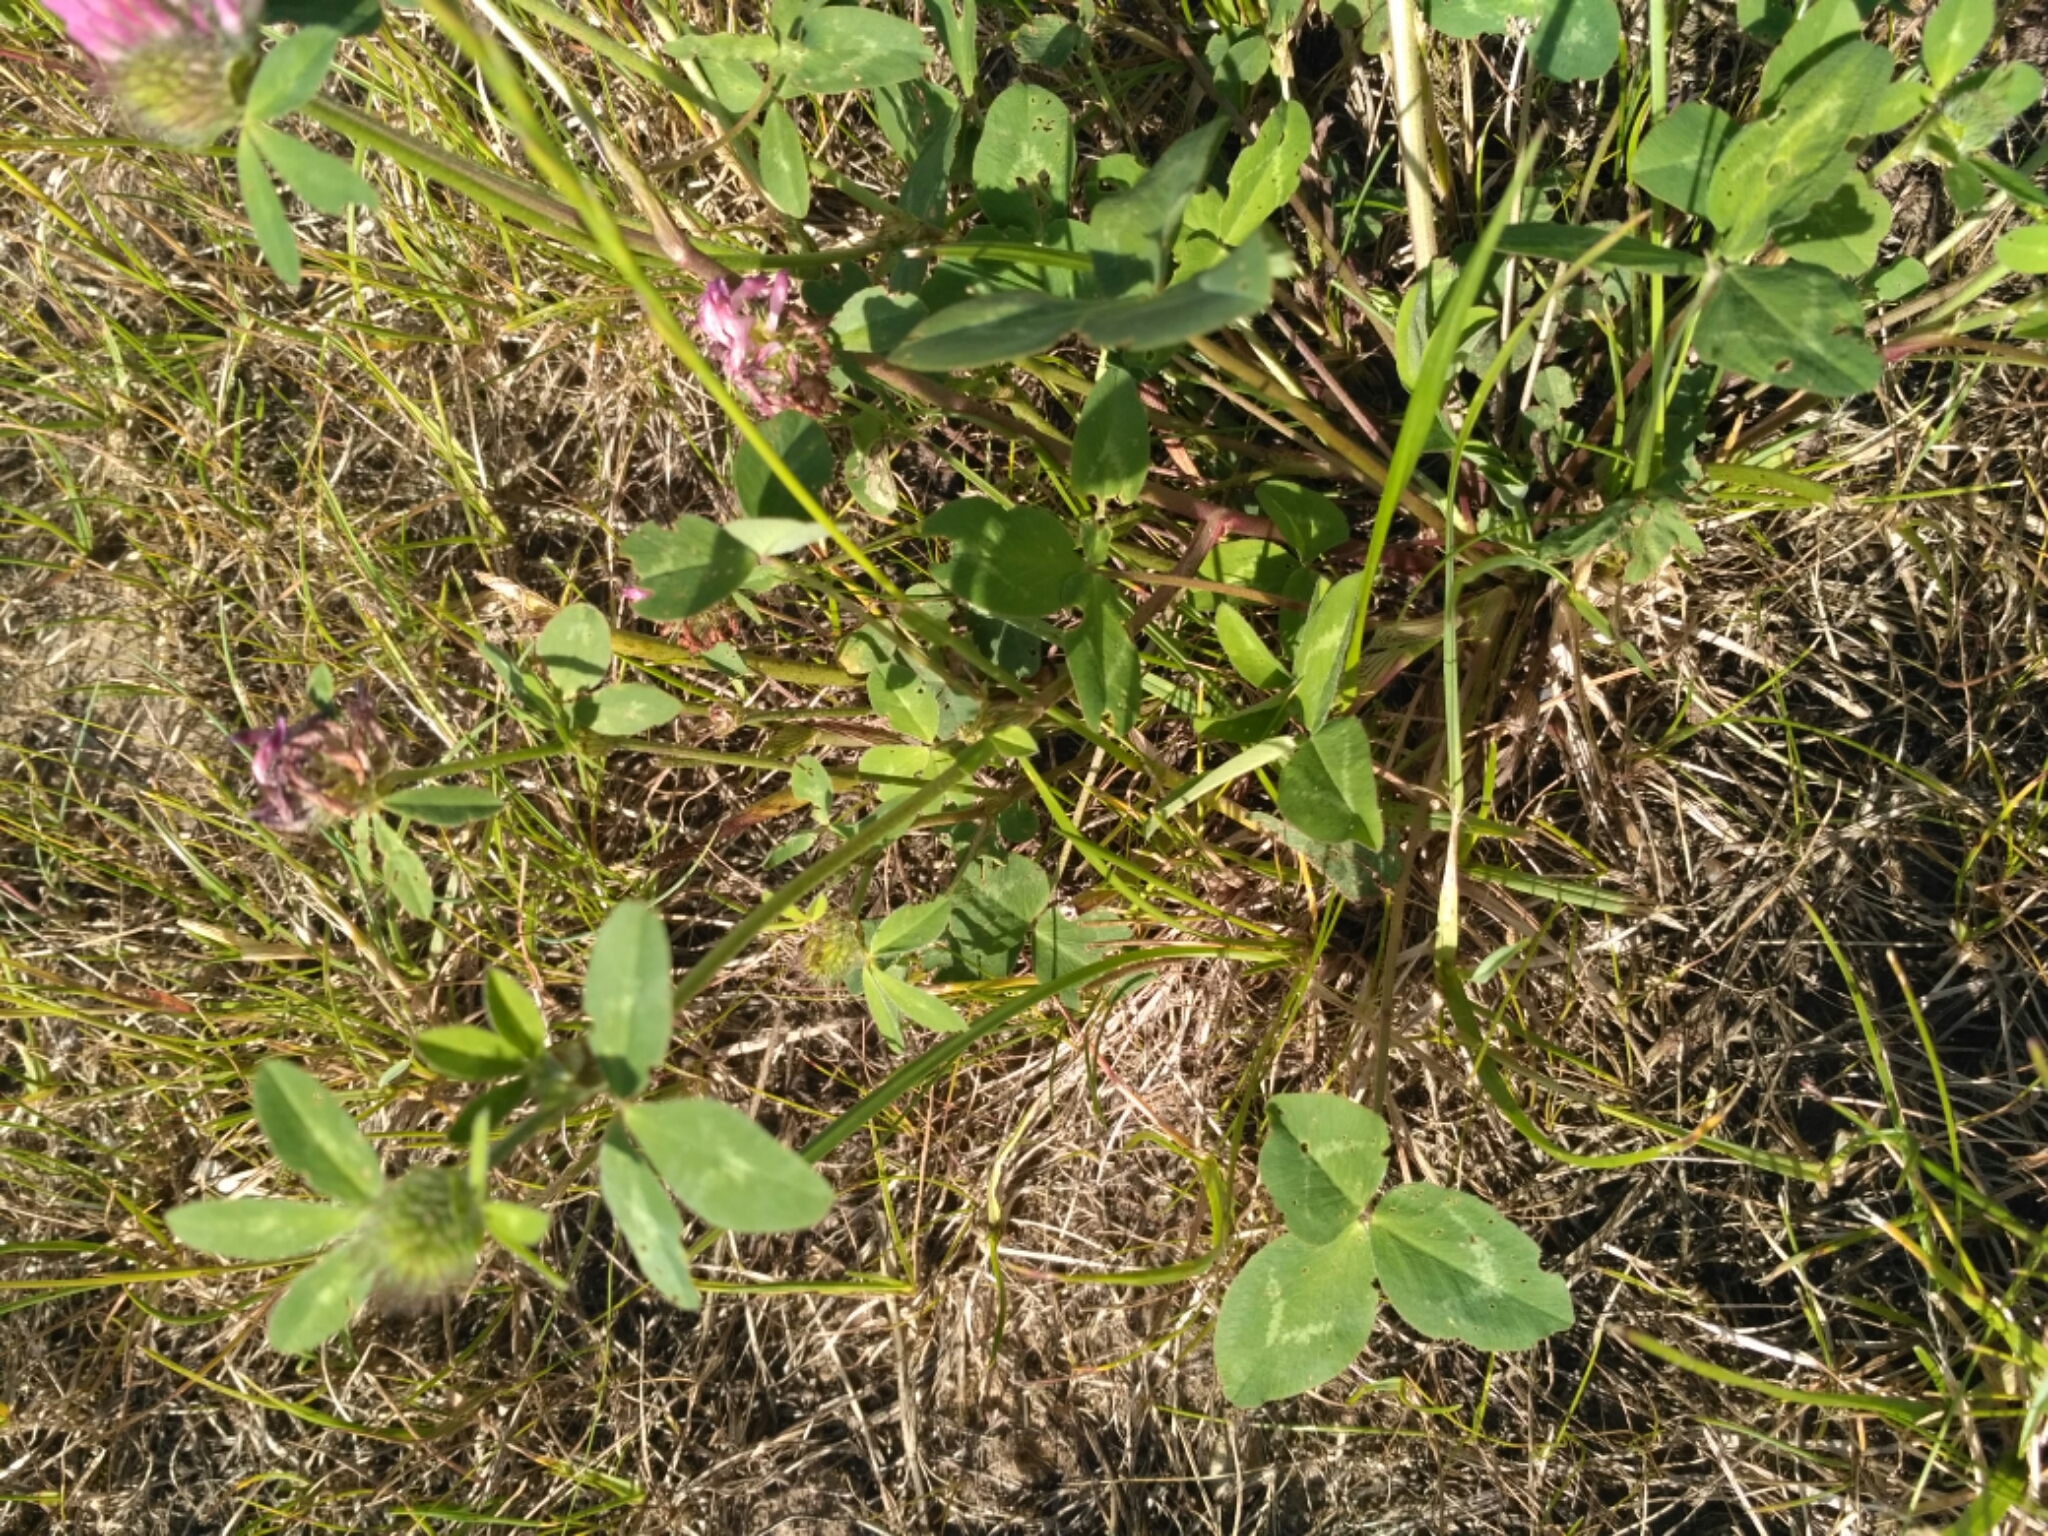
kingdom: Plantae
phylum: Tracheophyta
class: Magnoliopsida
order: Fabales
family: Fabaceae
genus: Trifolium
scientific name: Trifolium pratense
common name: Red clover
